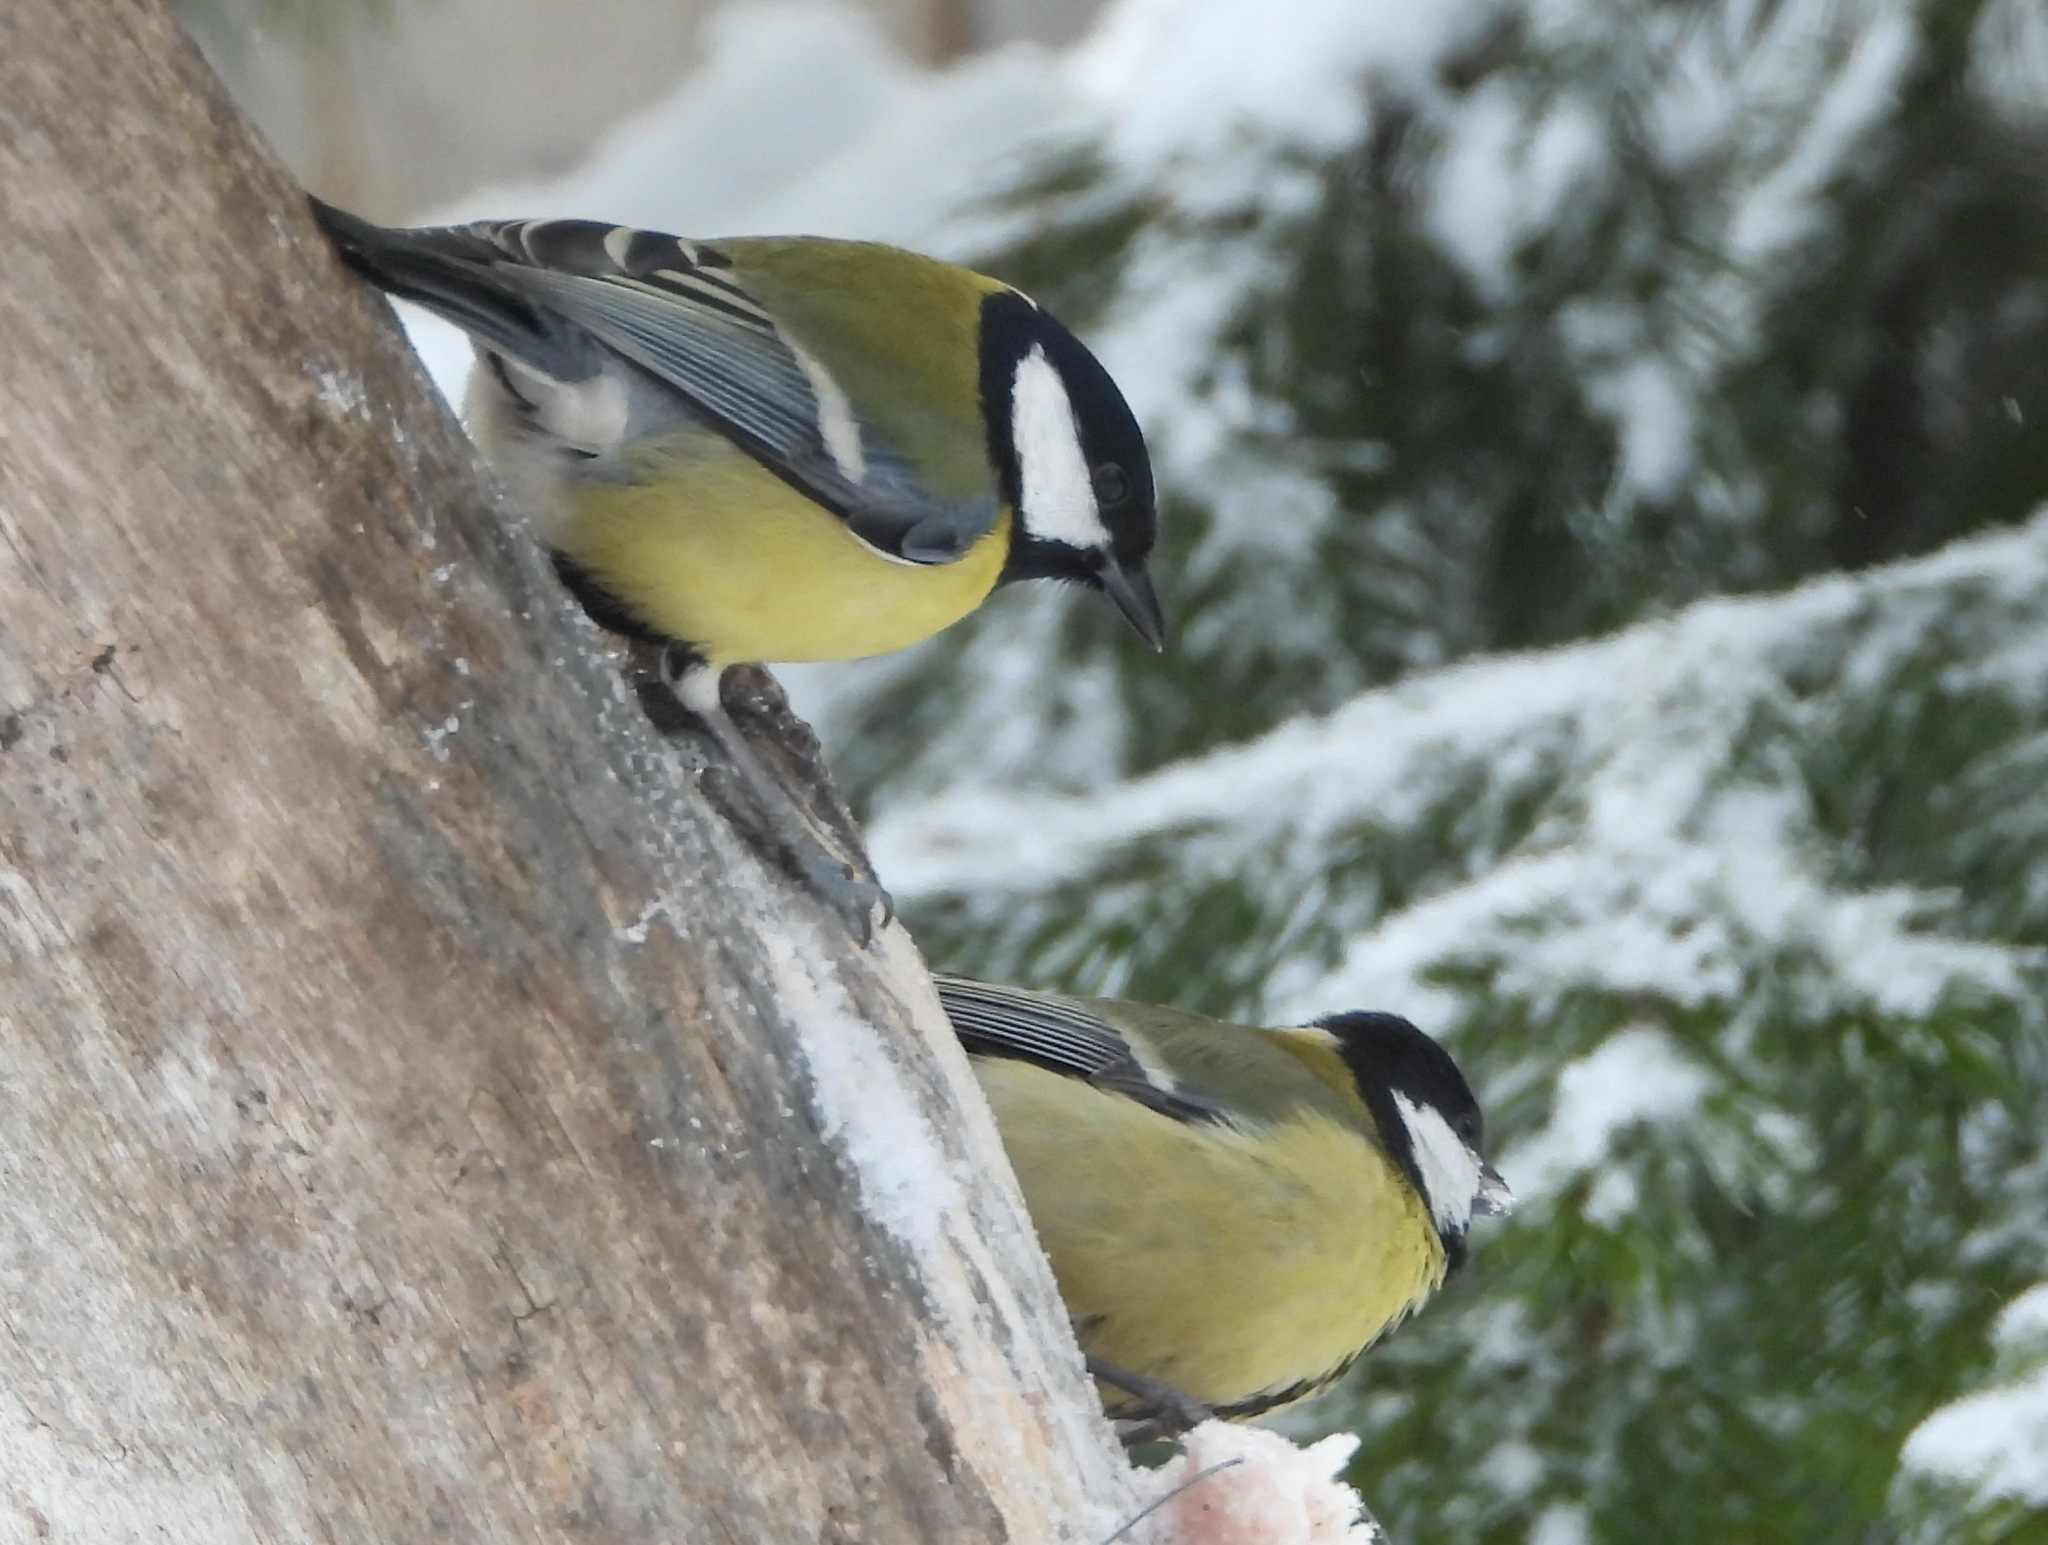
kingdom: Animalia
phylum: Chordata
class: Aves
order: Passeriformes
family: Paridae
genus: Parus
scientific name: Parus major
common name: Great tit
